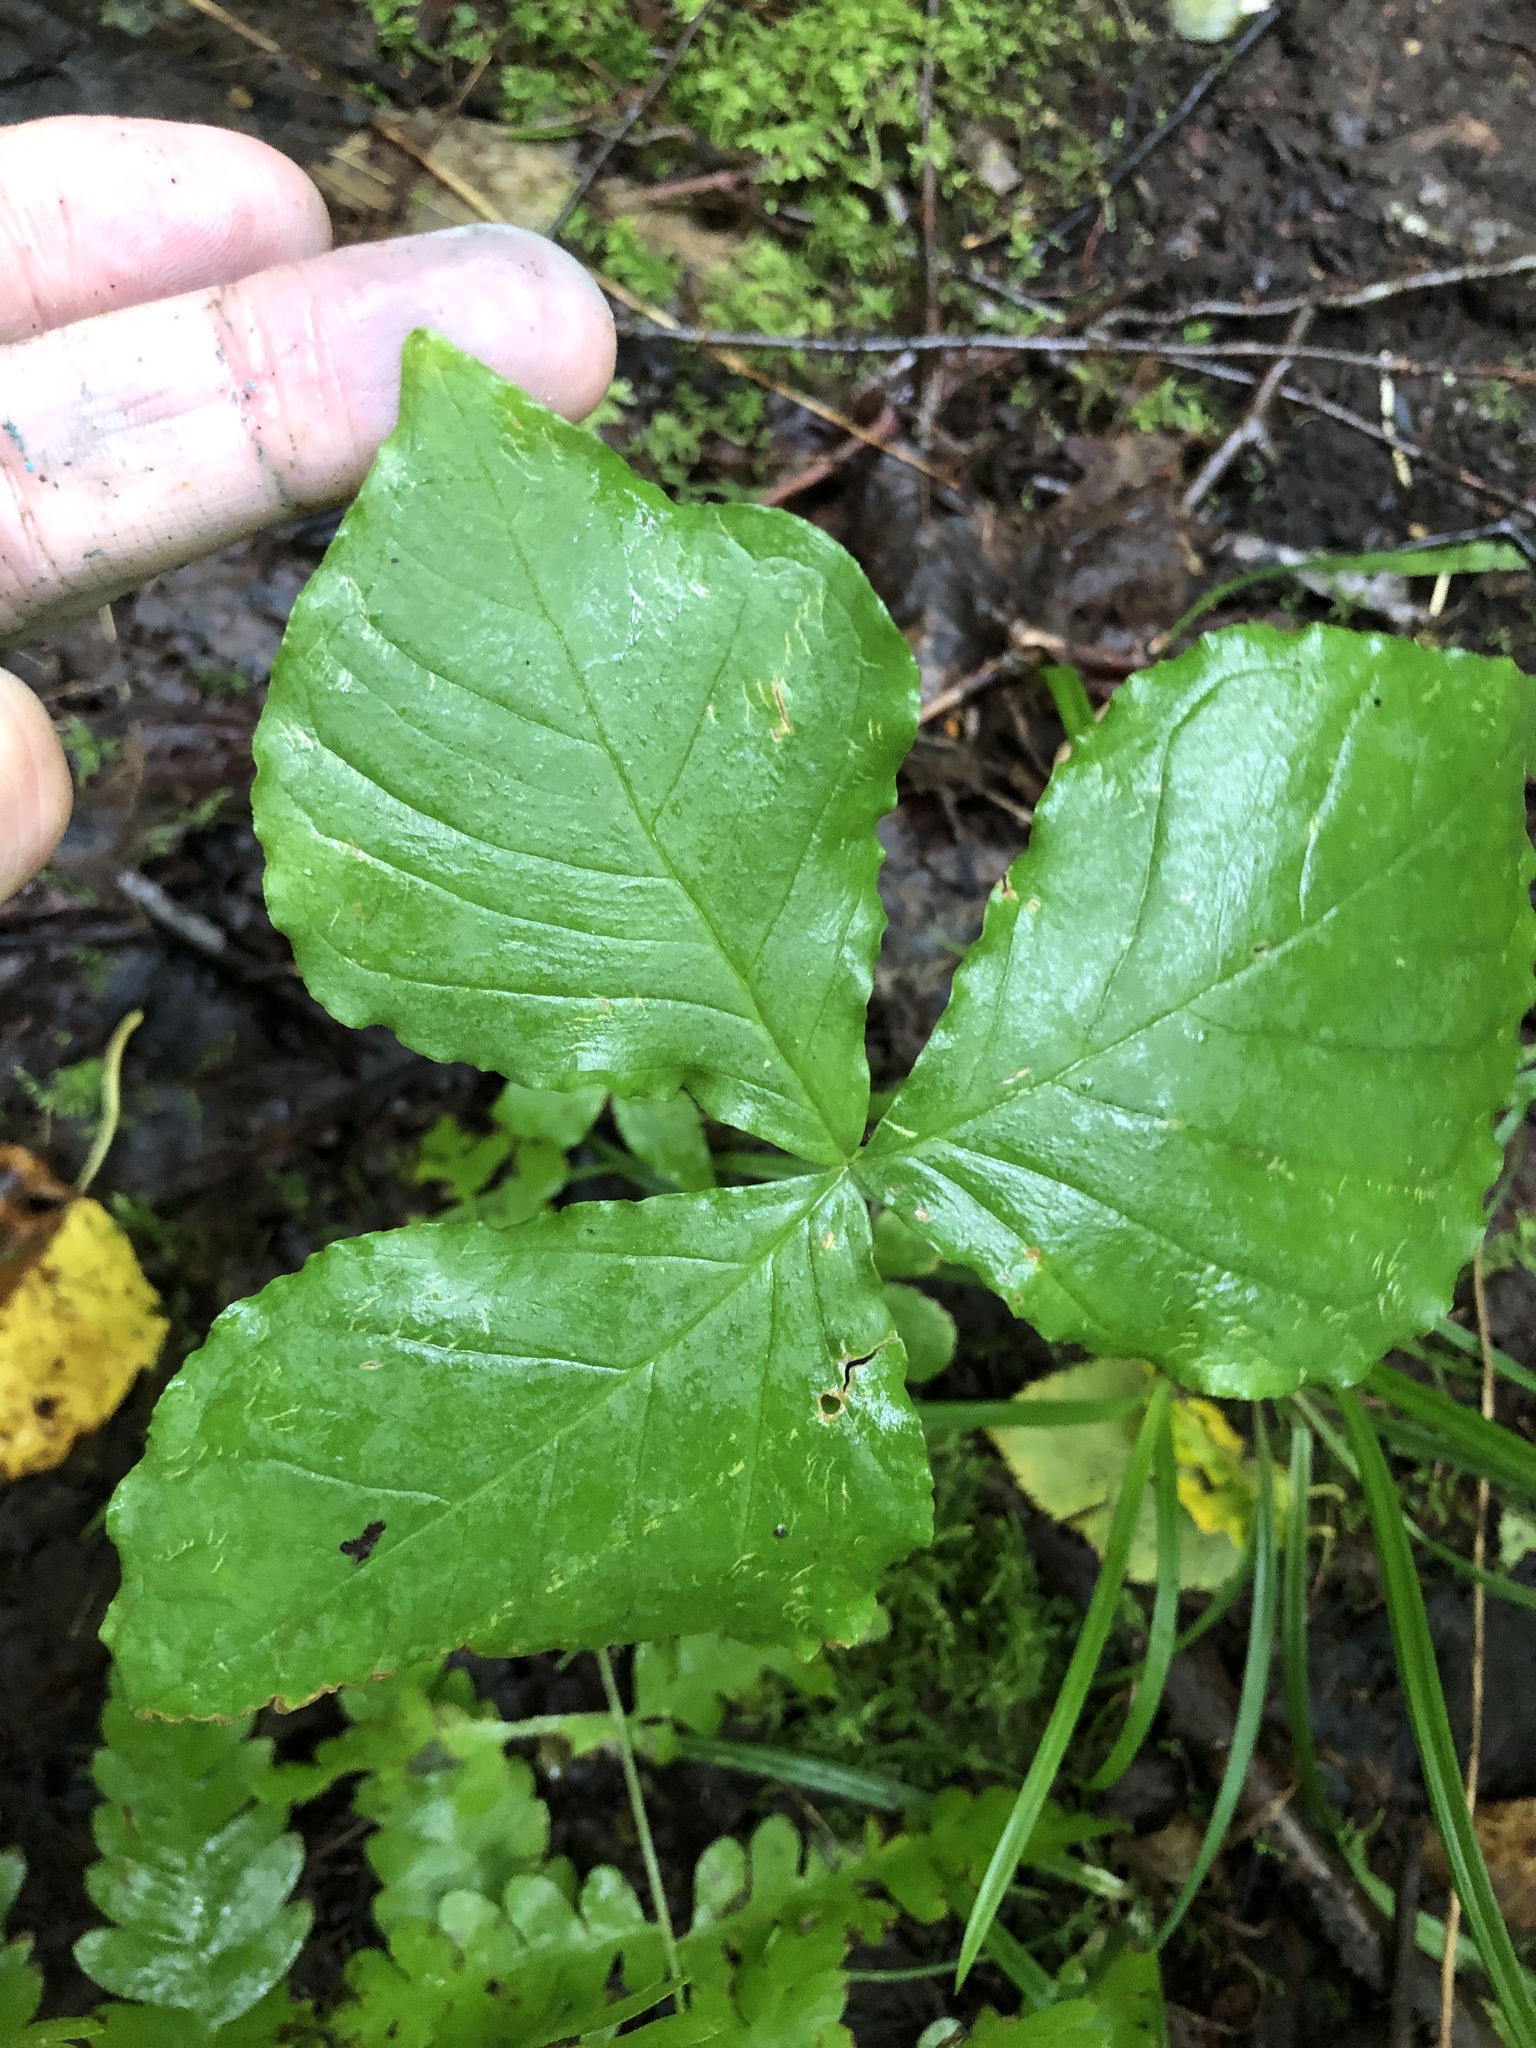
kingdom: Plantae
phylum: Tracheophyta
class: Liliopsida
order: Alismatales
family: Araceae
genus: Arisaema
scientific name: Arisaema triphyllum
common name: Jack-in-the-pulpit
